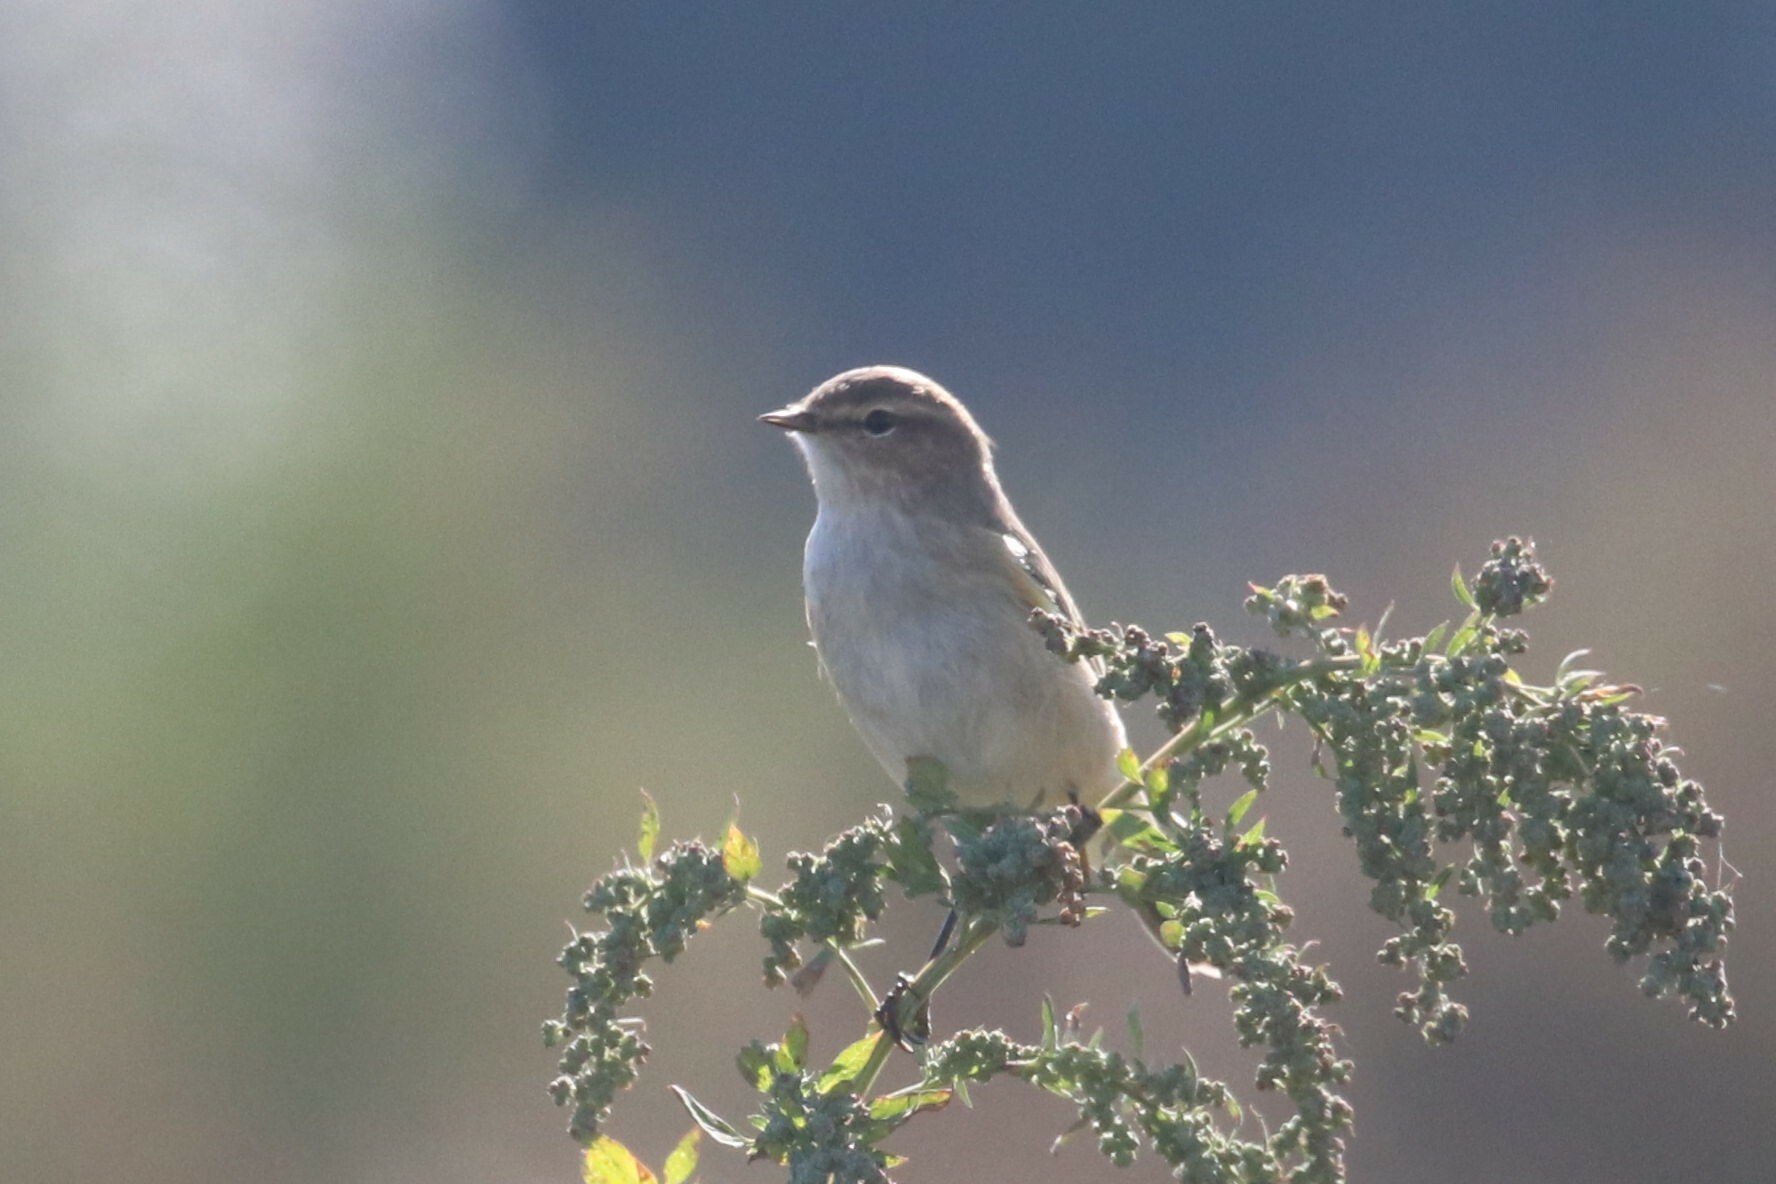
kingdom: Animalia
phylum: Chordata
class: Aves
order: Passeriformes
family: Phylloscopidae
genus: Phylloscopus
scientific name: Phylloscopus collybita
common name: Common chiffchaff
